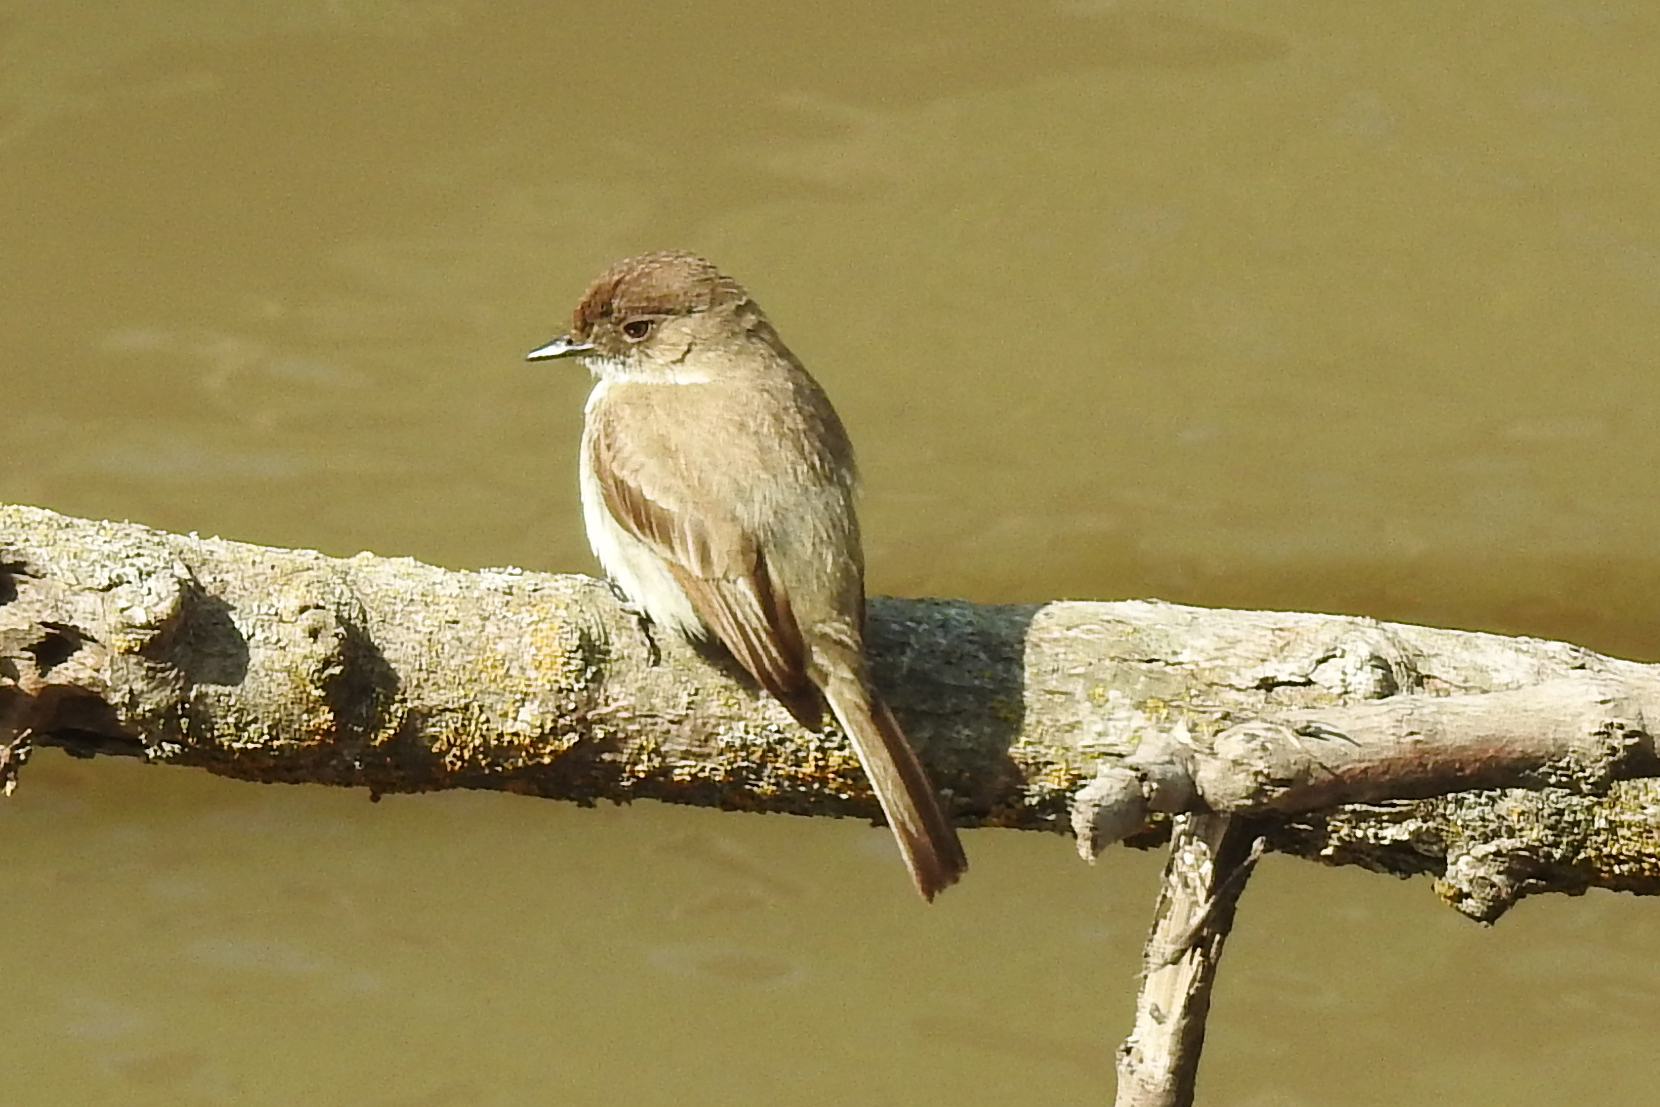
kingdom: Animalia
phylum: Chordata
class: Aves
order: Passeriformes
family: Tyrannidae
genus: Sayornis
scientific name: Sayornis phoebe
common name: Eastern phoebe
